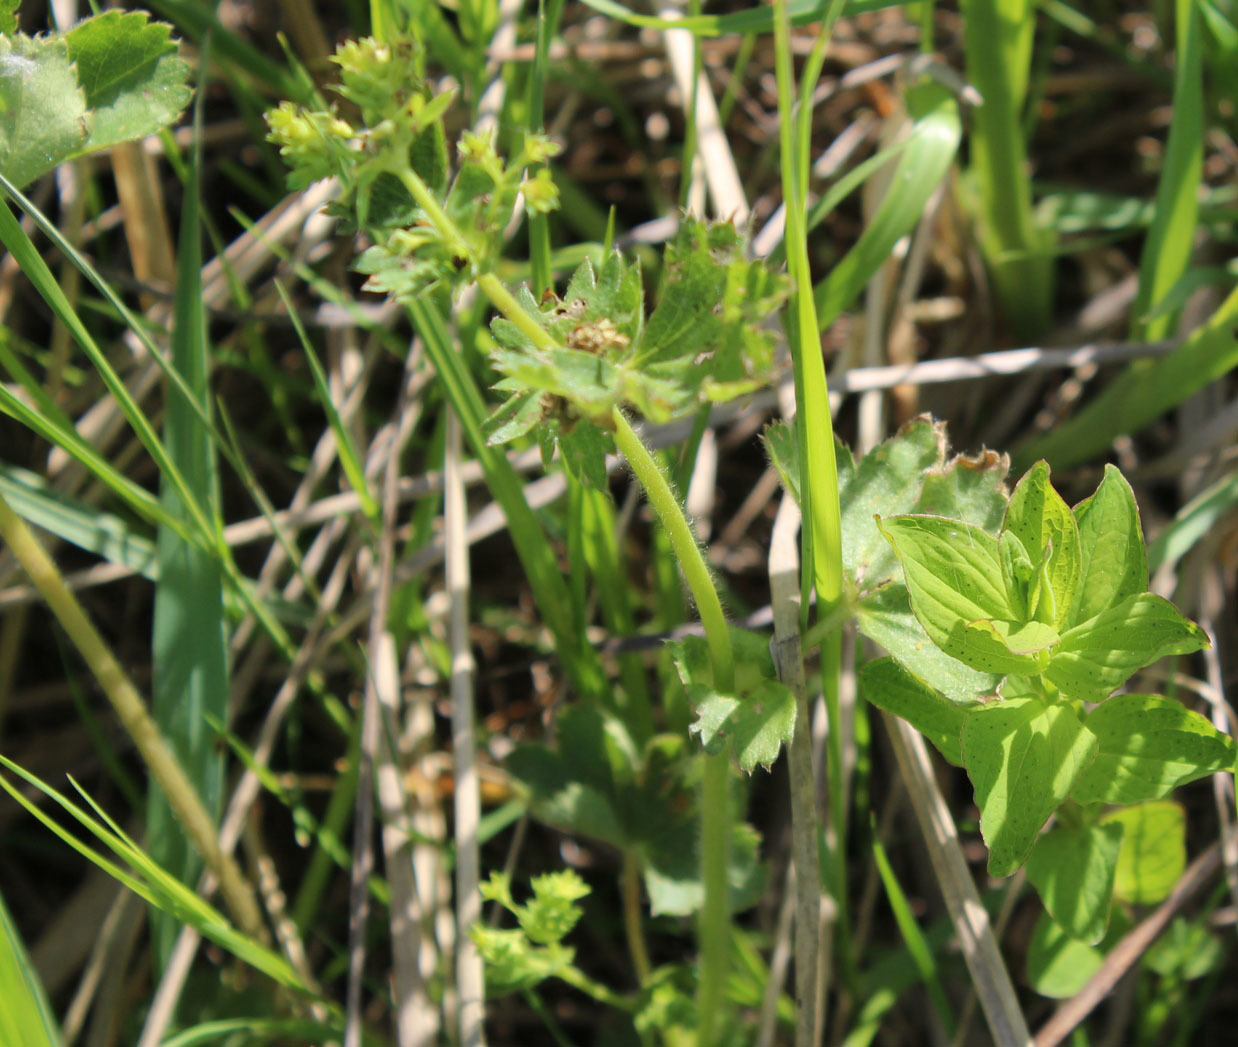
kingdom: Plantae
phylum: Tracheophyta
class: Magnoliopsida
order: Rosales
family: Rosaceae
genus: Alchemilla
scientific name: Alchemilla
